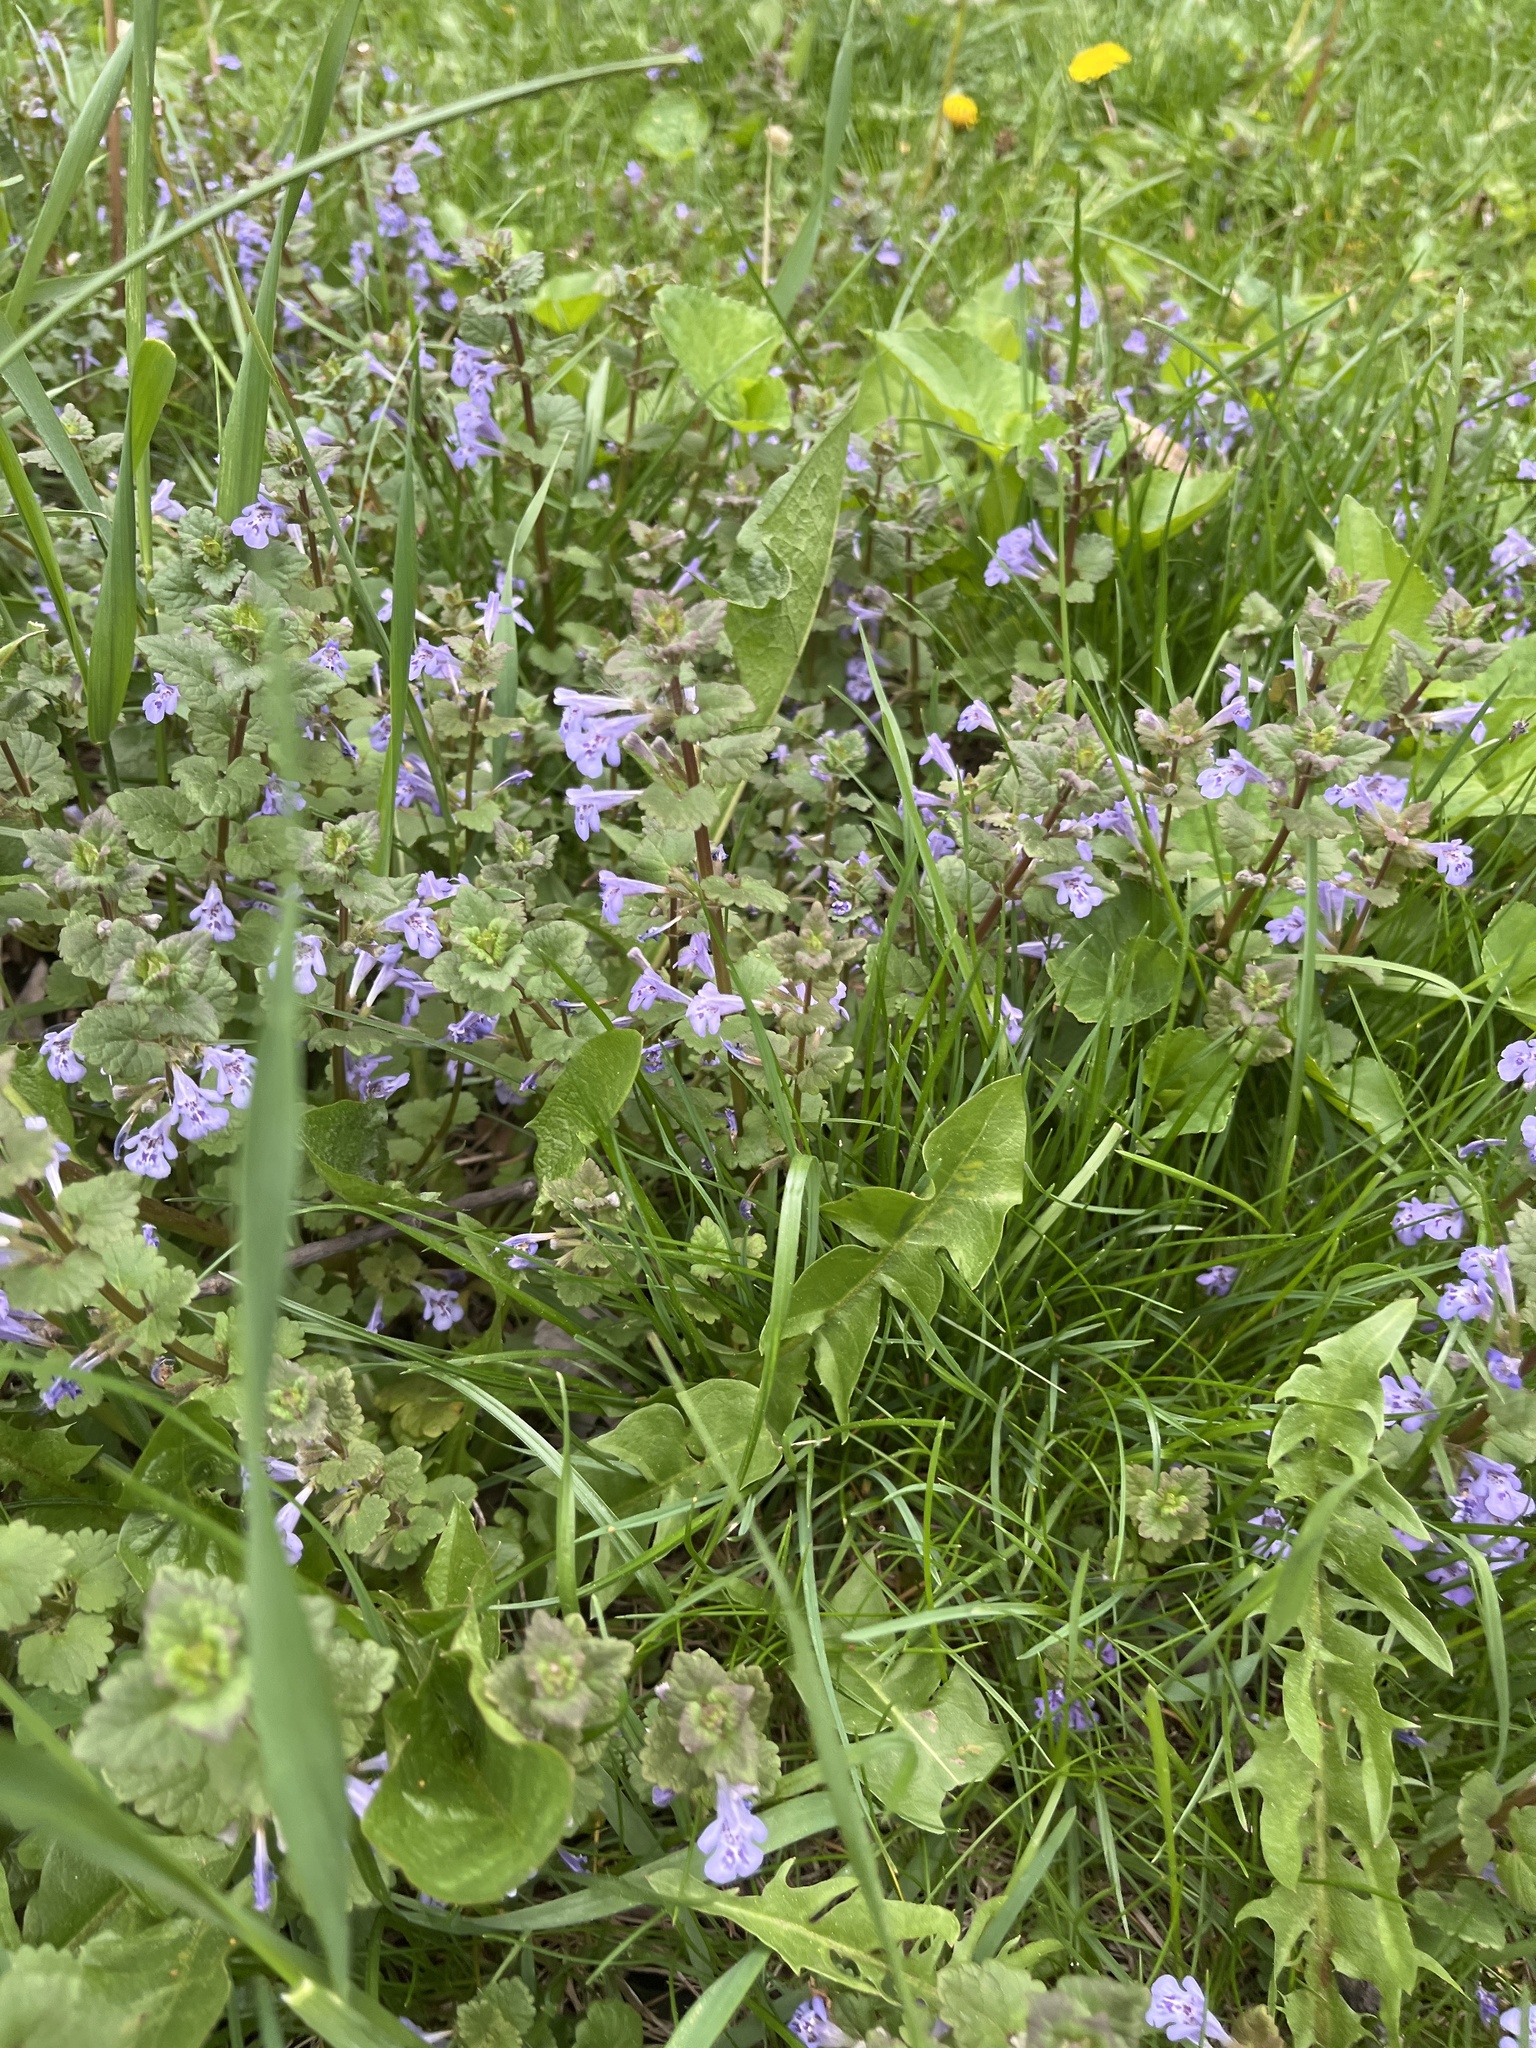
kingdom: Plantae
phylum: Tracheophyta
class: Magnoliopsida
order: Lamiales
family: Lamiaceae
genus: Glechoma
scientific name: Glechoma hederacea
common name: Ground ivy
